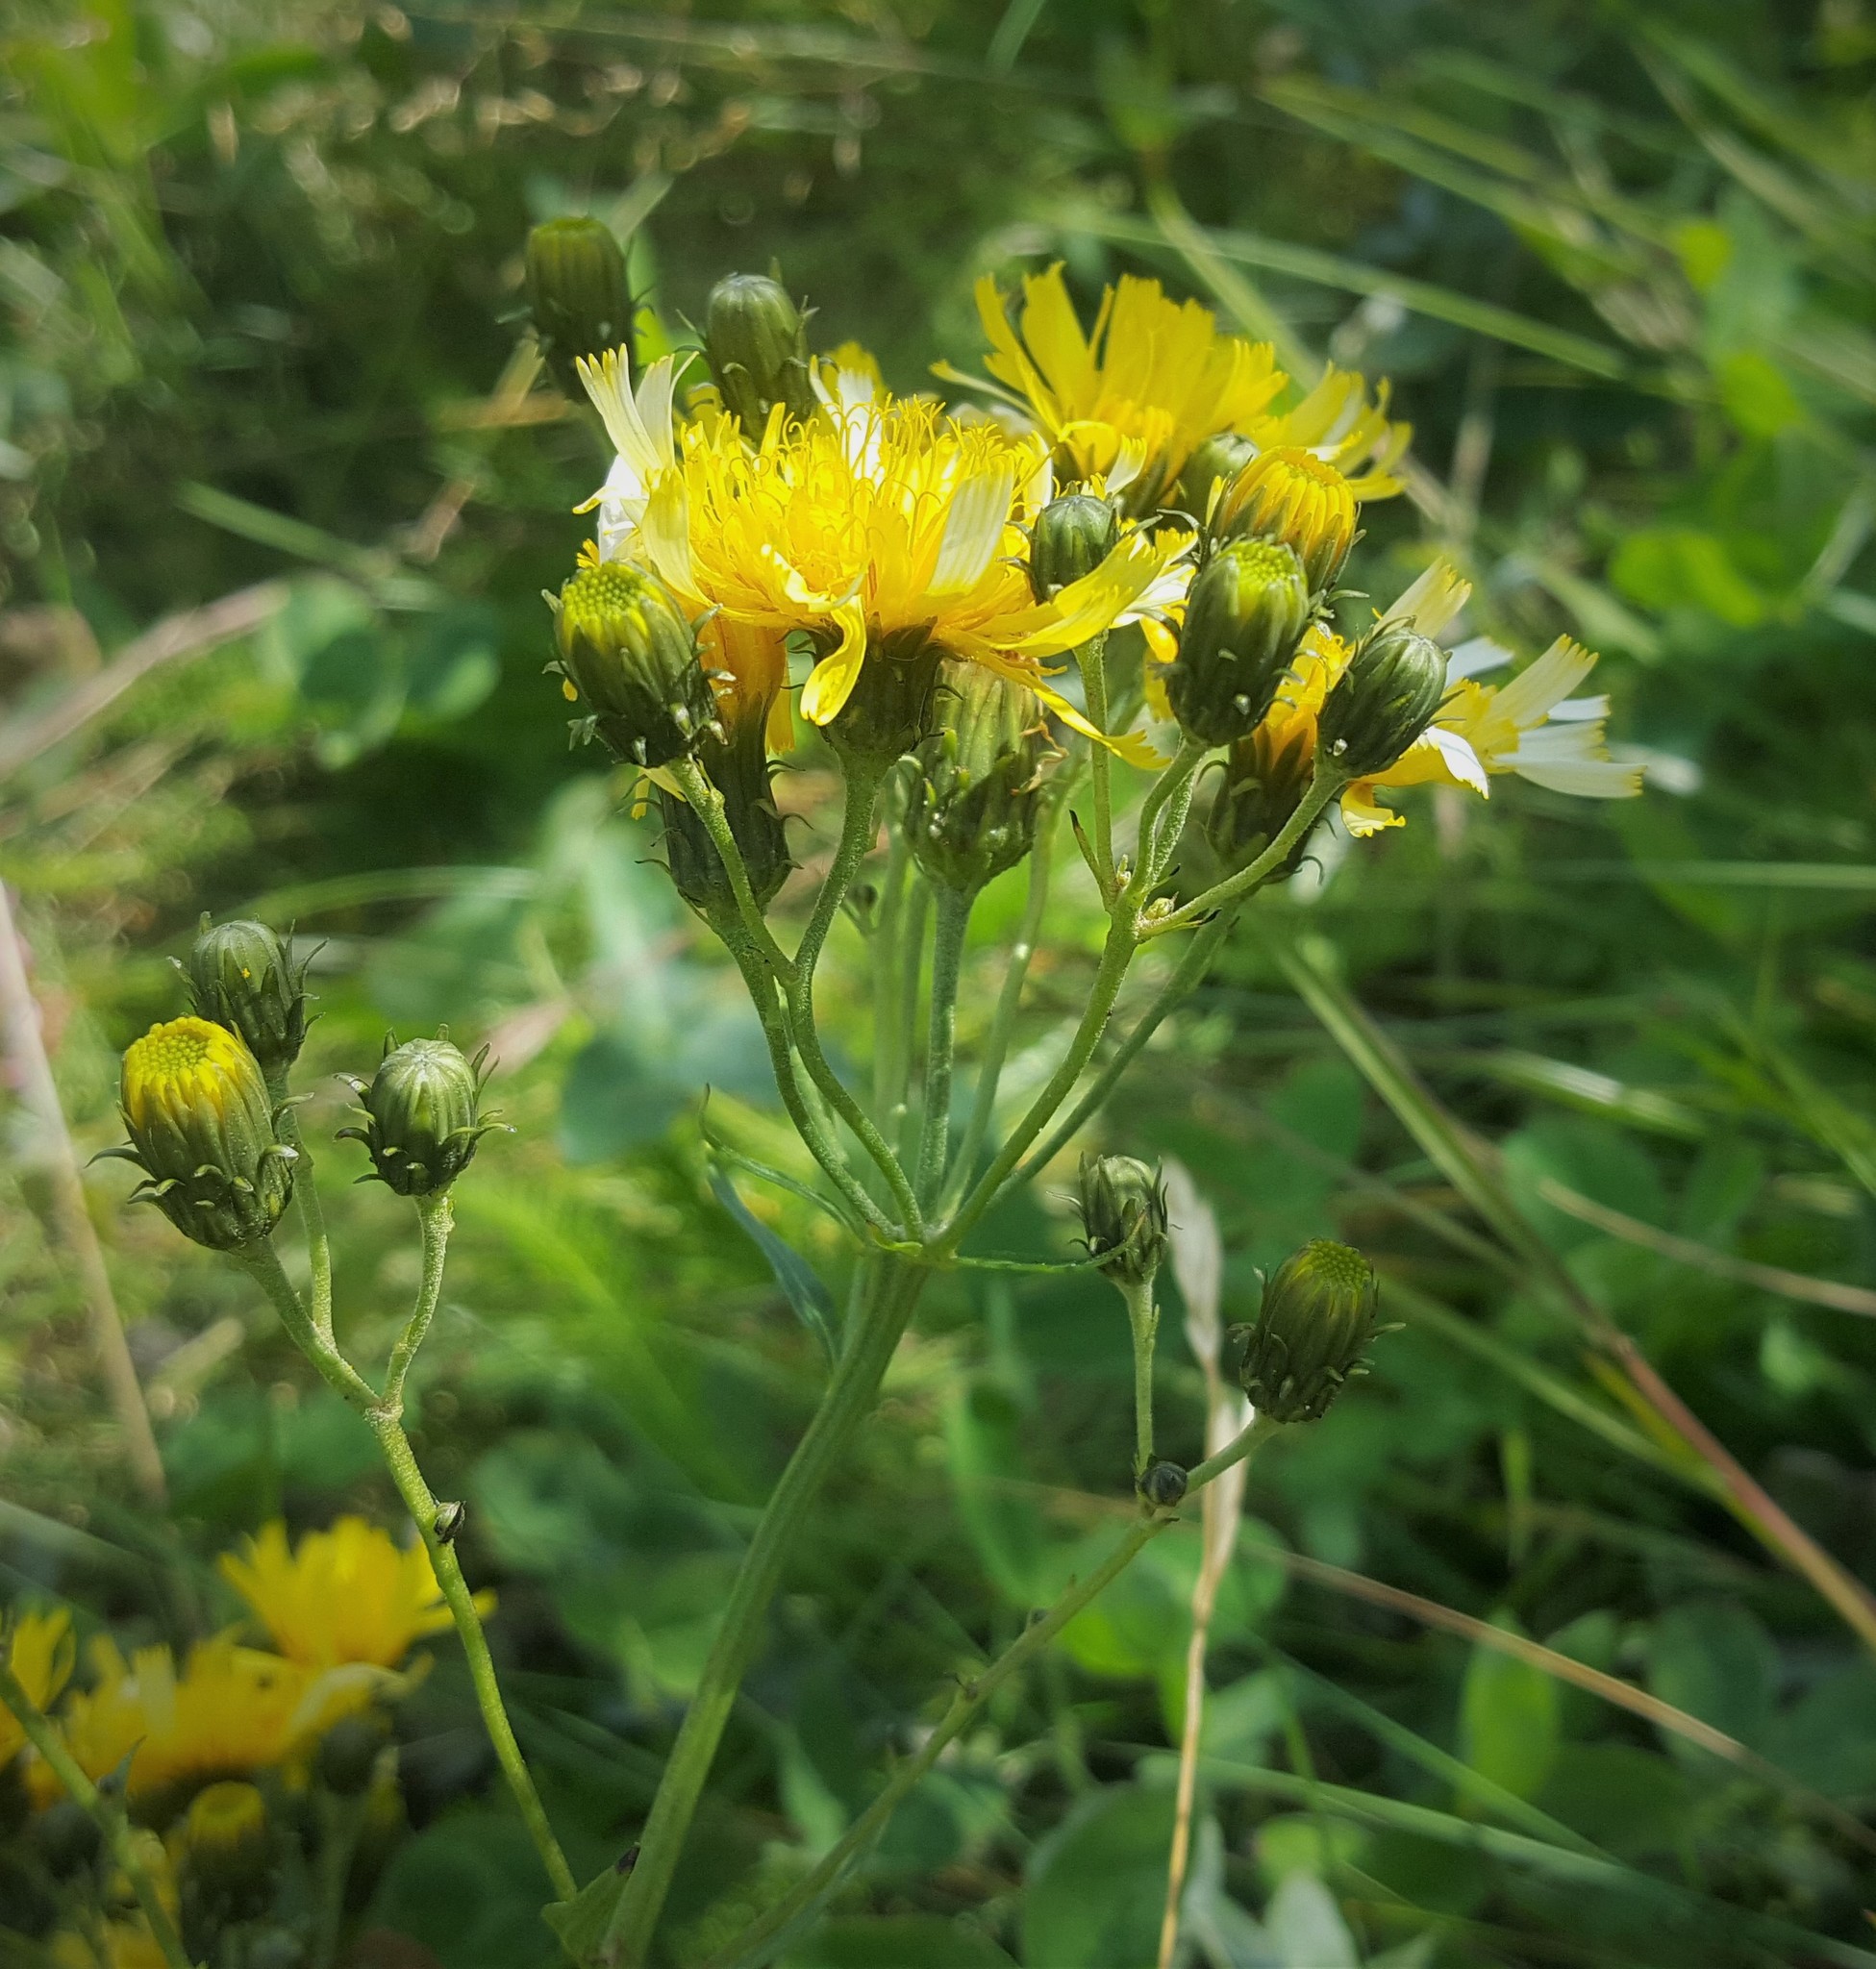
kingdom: Plantae
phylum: Tracheophyta
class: Magnoliopsida
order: Asterales
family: Asteraceae
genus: Hieracium
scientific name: Hieracium umbellatum
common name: Northern hawkweed
